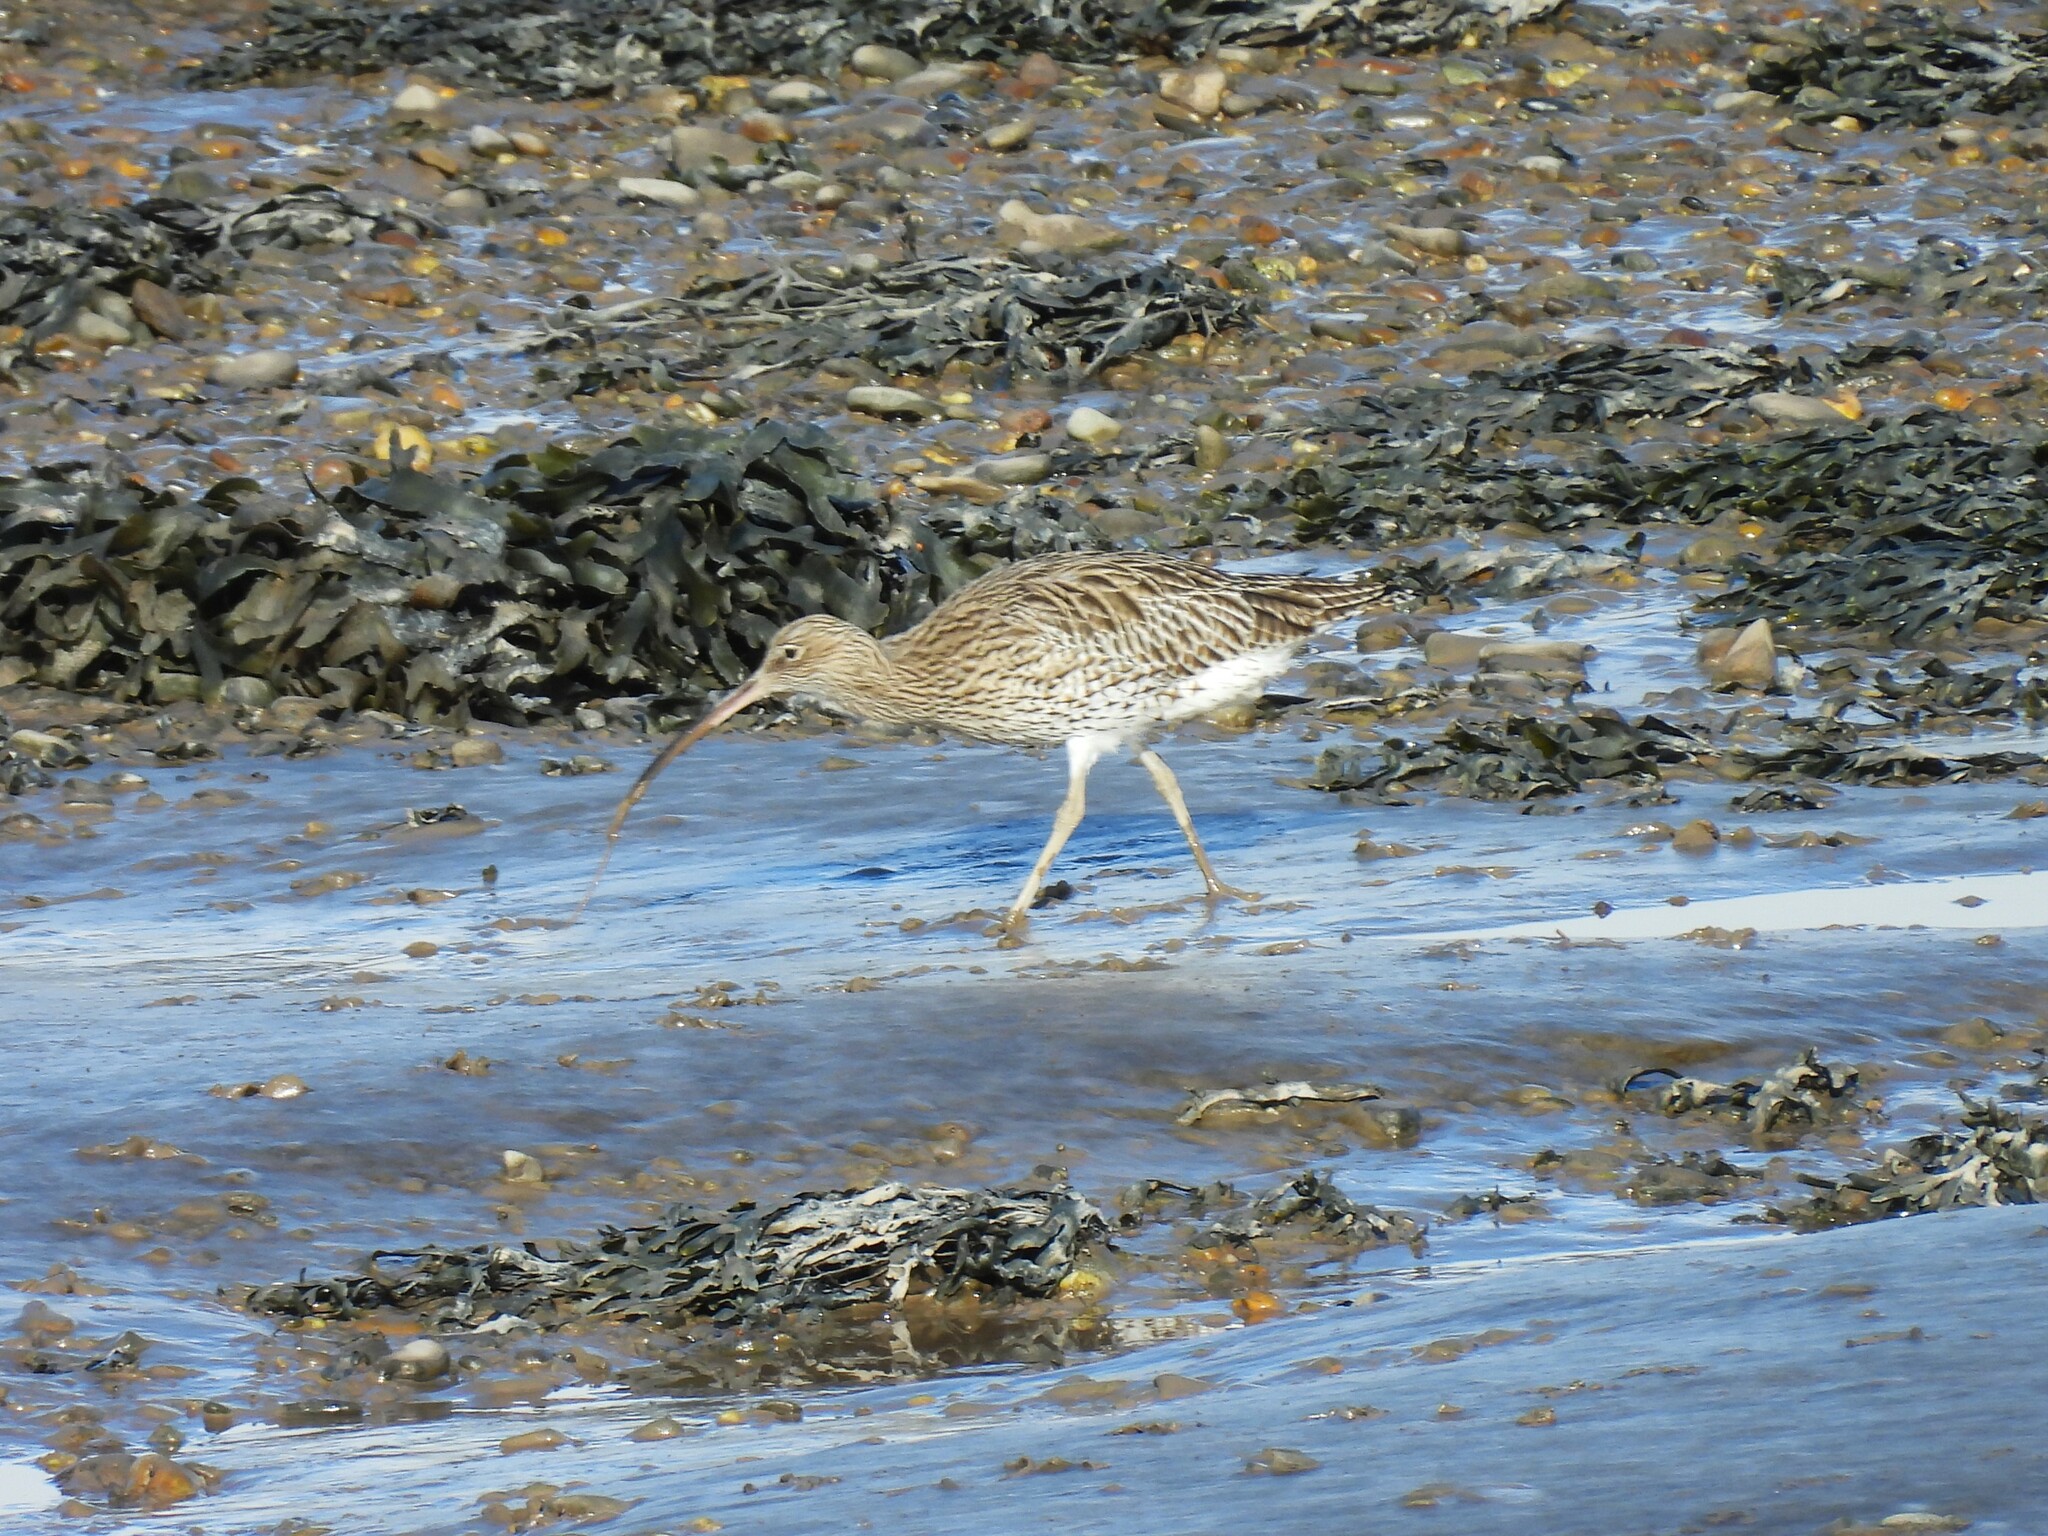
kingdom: Animalia
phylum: Chordata
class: Aves
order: Charadriiformes
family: Scolopacidae
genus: Numenius
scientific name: Numenius arquata
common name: Eurasian curlew
